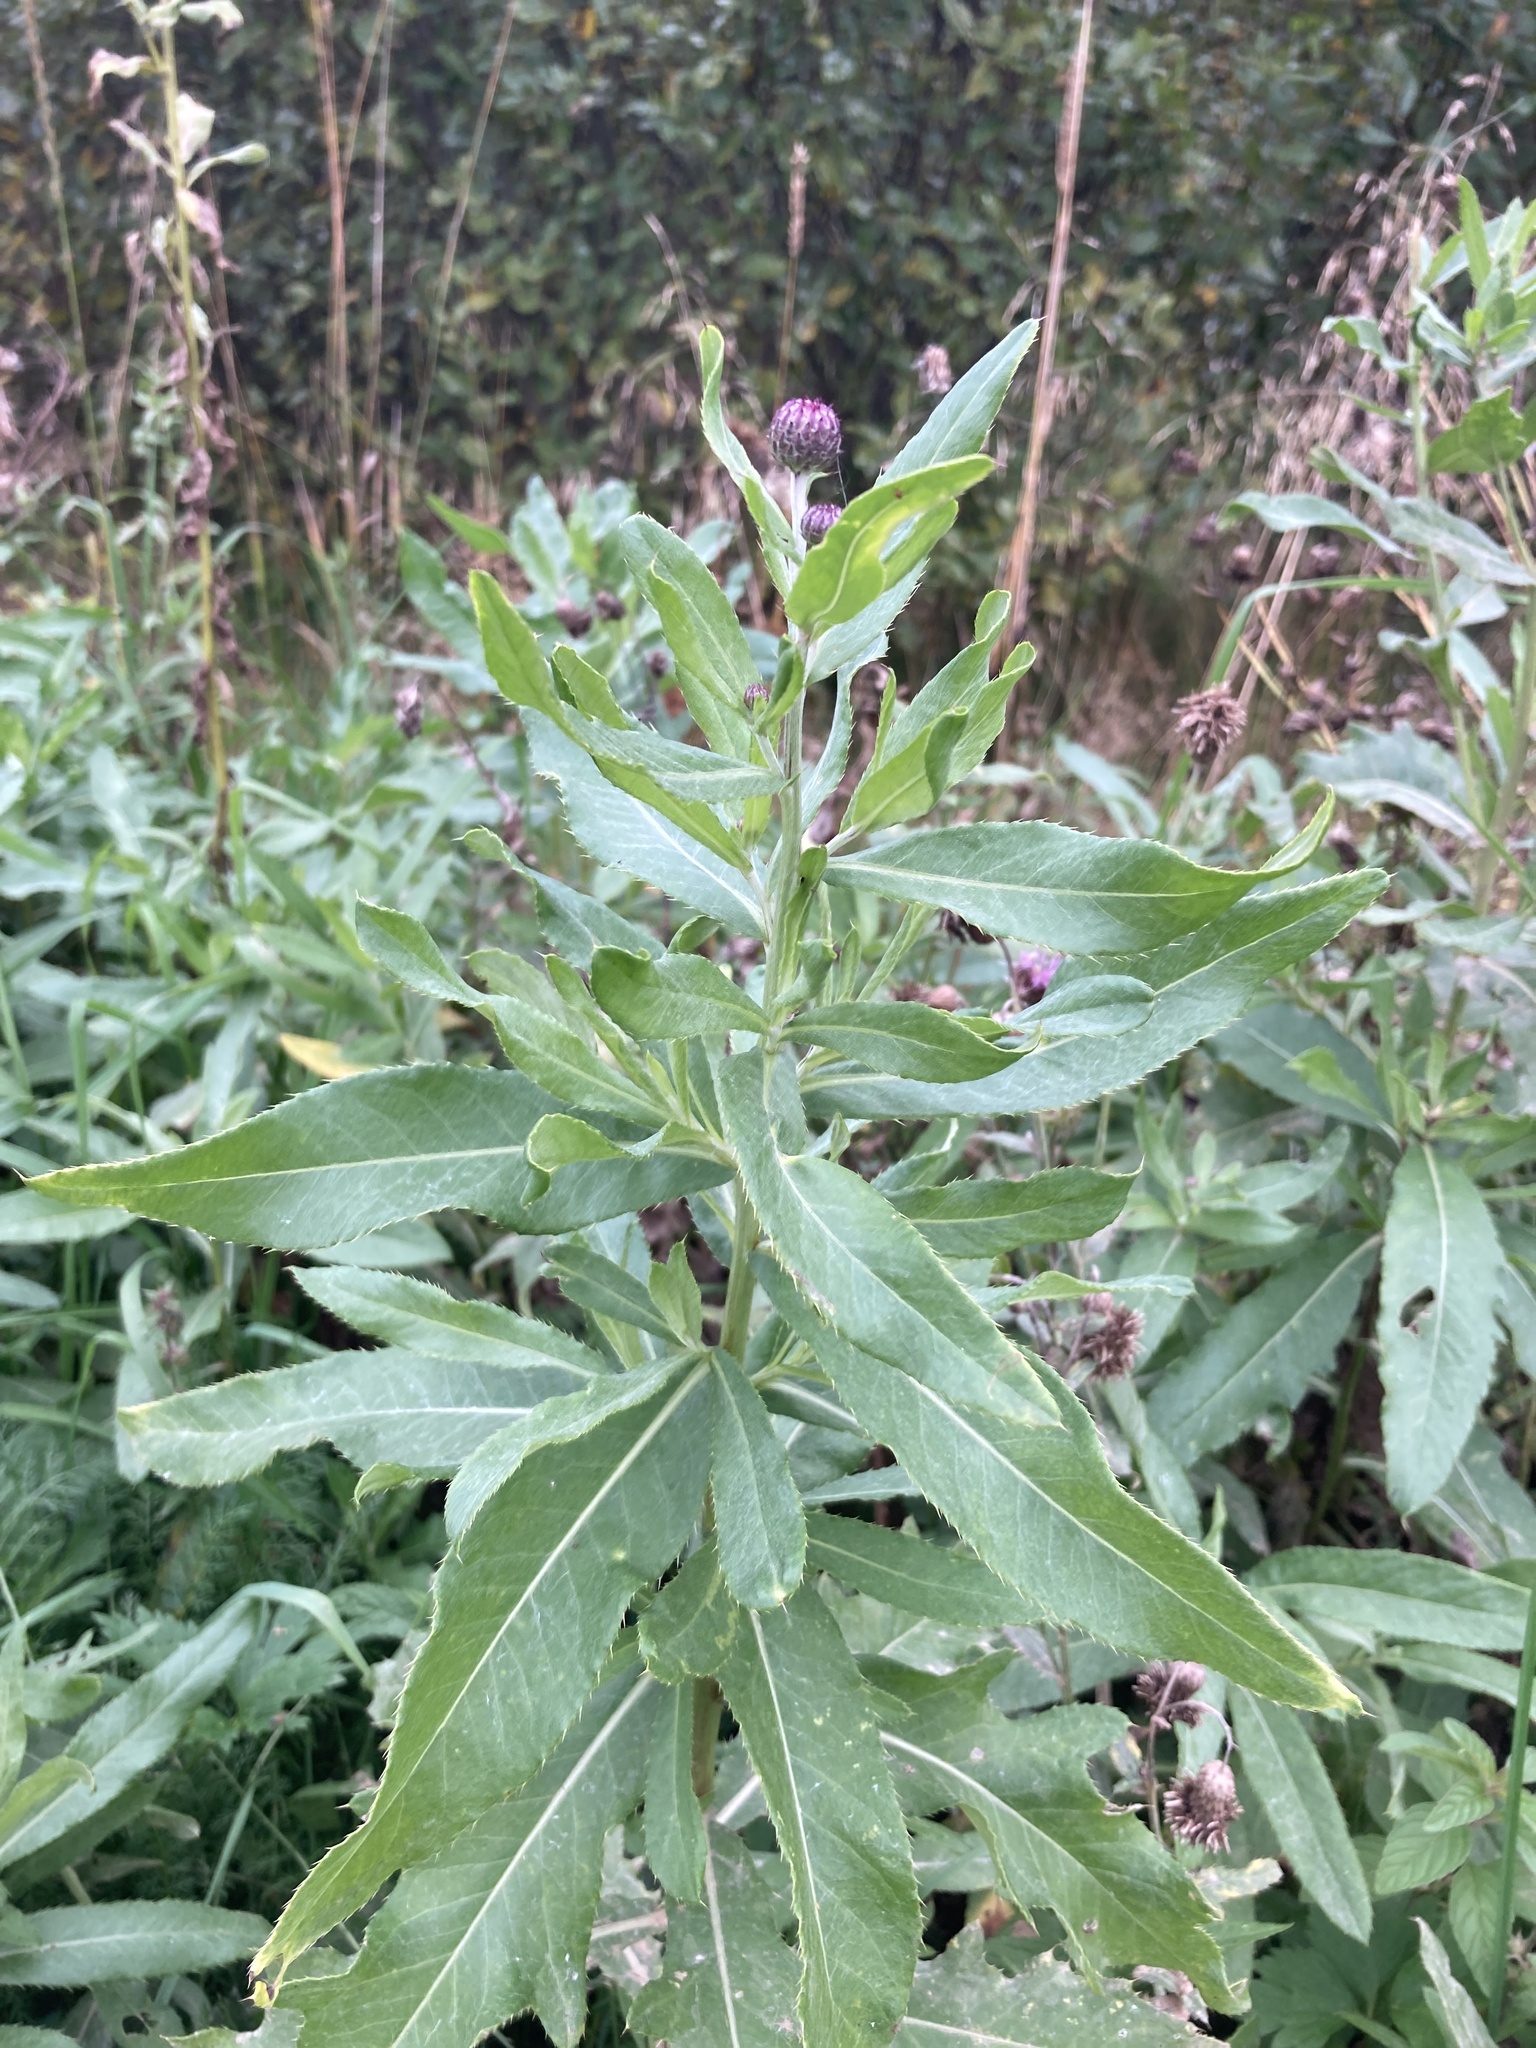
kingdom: Plantae
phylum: Tracheophyta
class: Magnoliopsida
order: Asterales
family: Asteraceae
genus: Cirsium
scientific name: Cirsium arvense
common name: Creeping thistle
